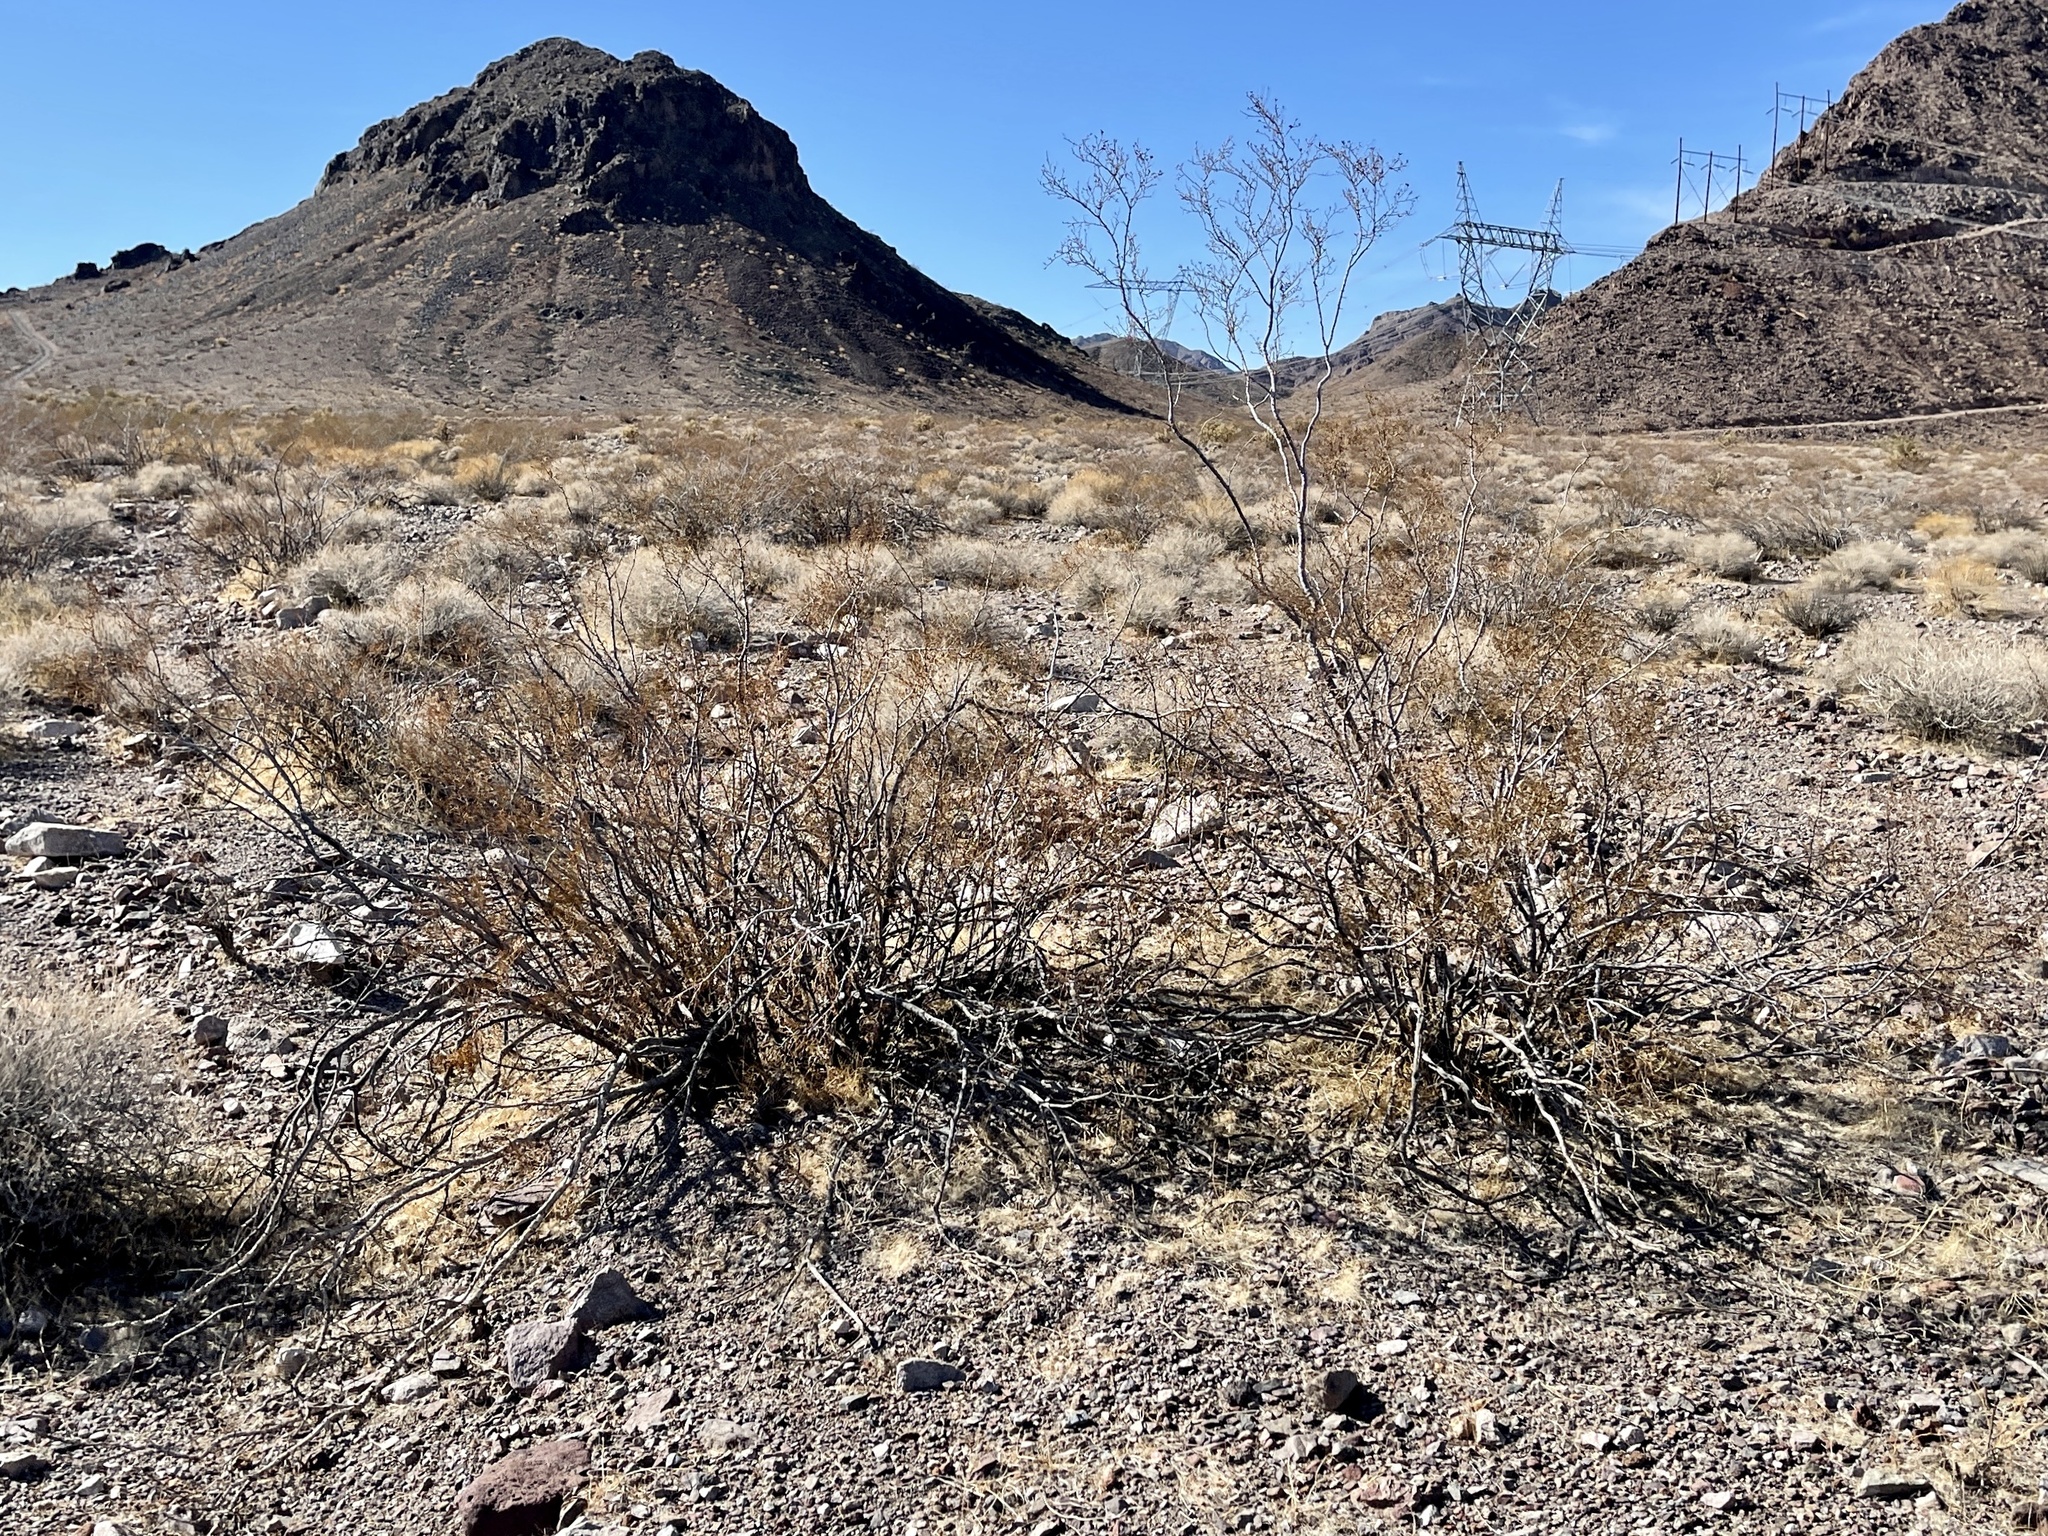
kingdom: Plantae
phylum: Tracheophyta
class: Magnoliopsida
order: Zygophyllales
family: Zygophyllaceae
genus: Larrea
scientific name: Larrea tridentata
